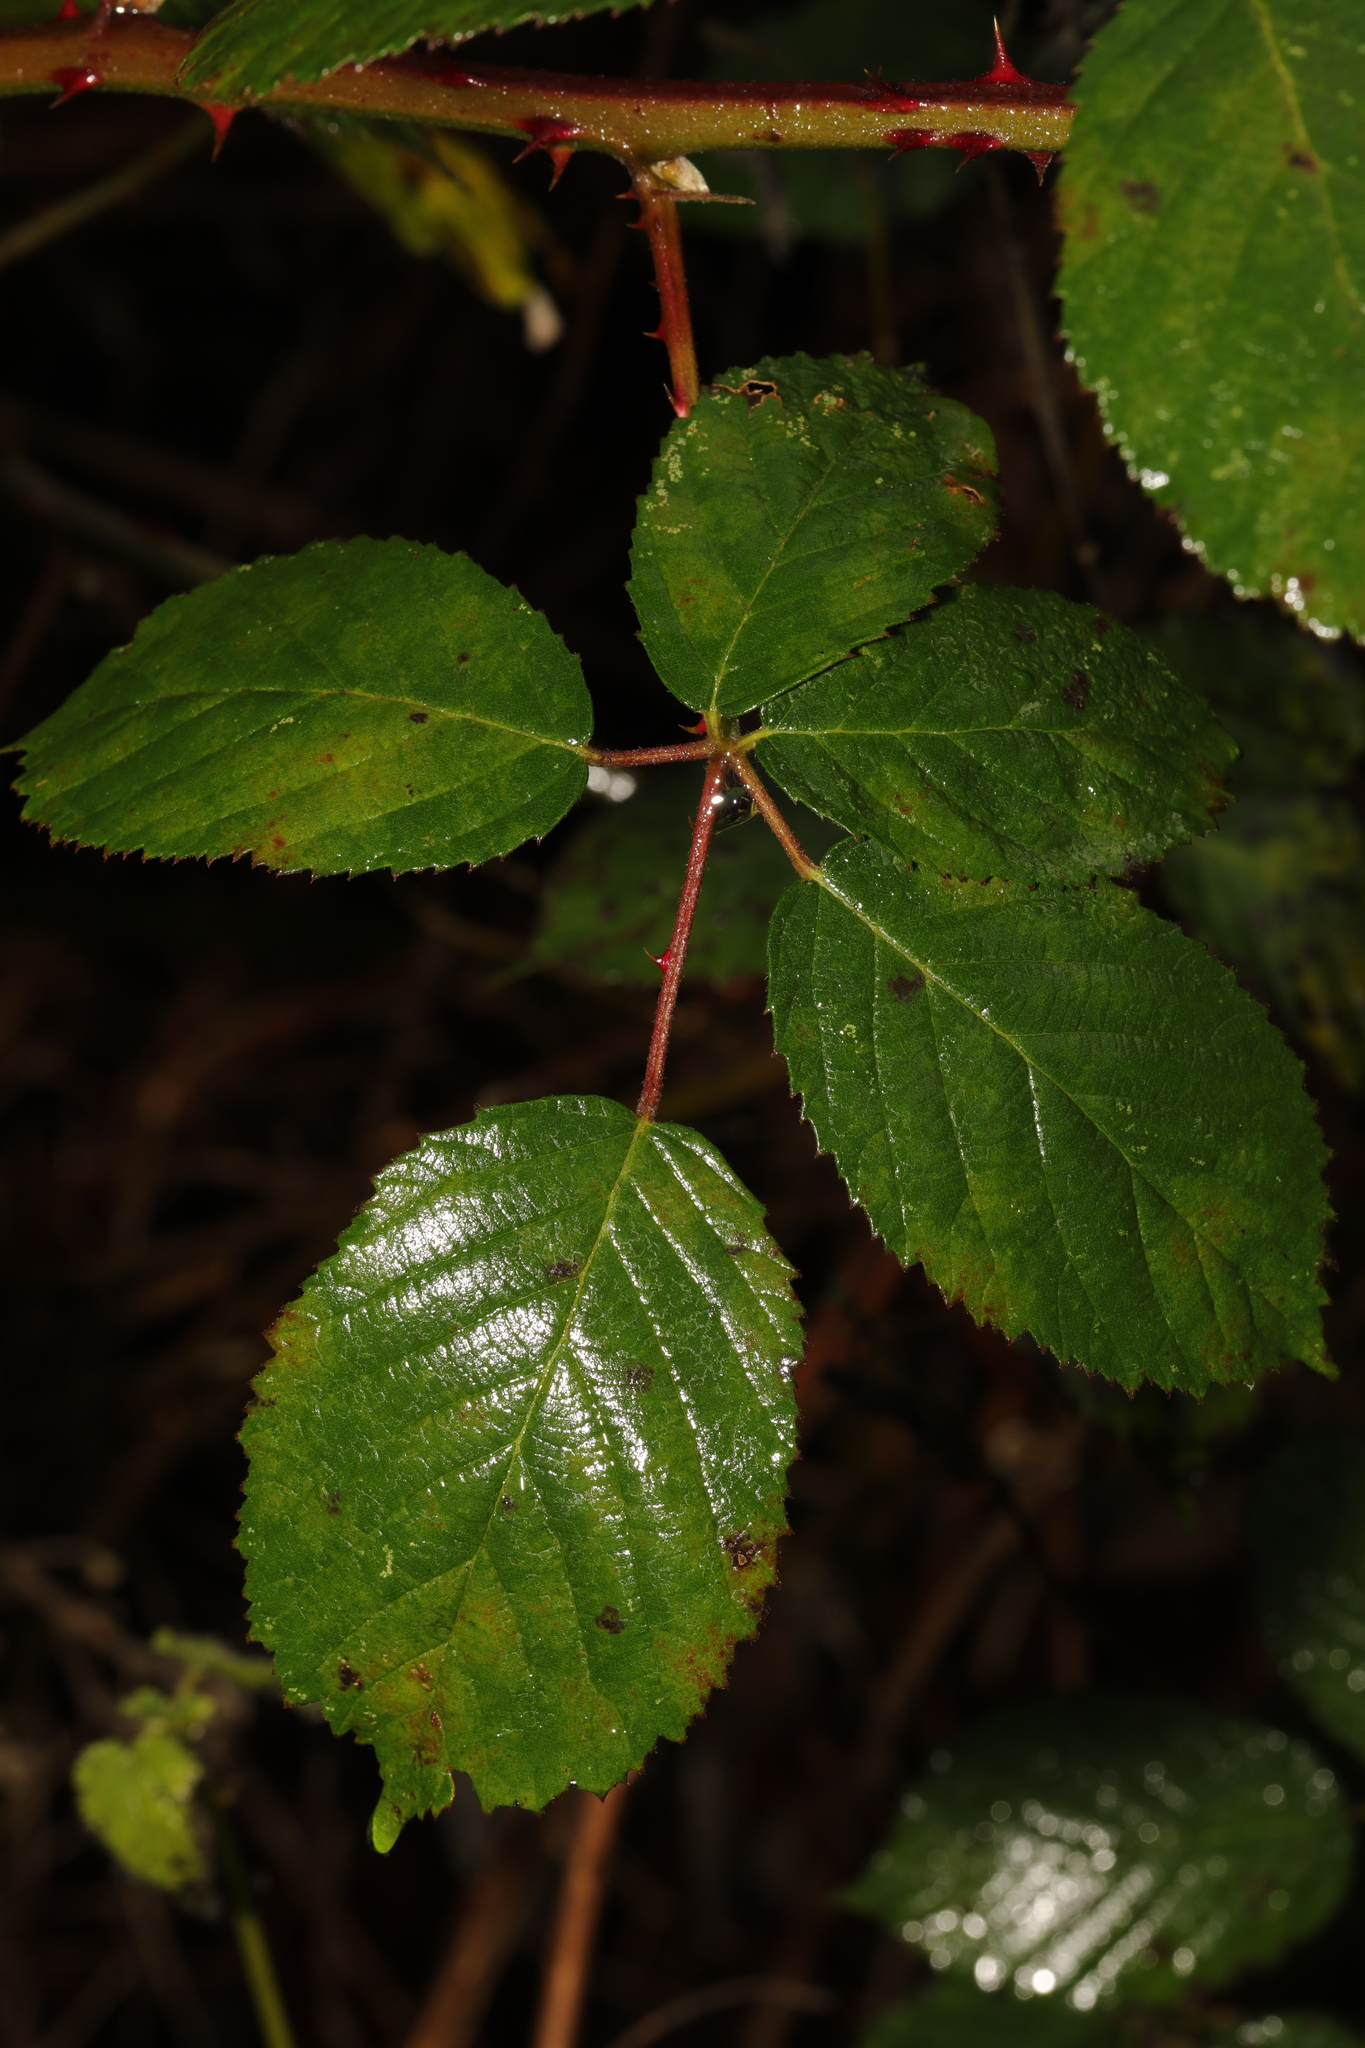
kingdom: Plantae
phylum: Tracheophyta
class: Magnoliopsida
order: Rosales
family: Rosaceae
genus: Rubus
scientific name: Rubus armeniacus
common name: Himalayan blackberry
